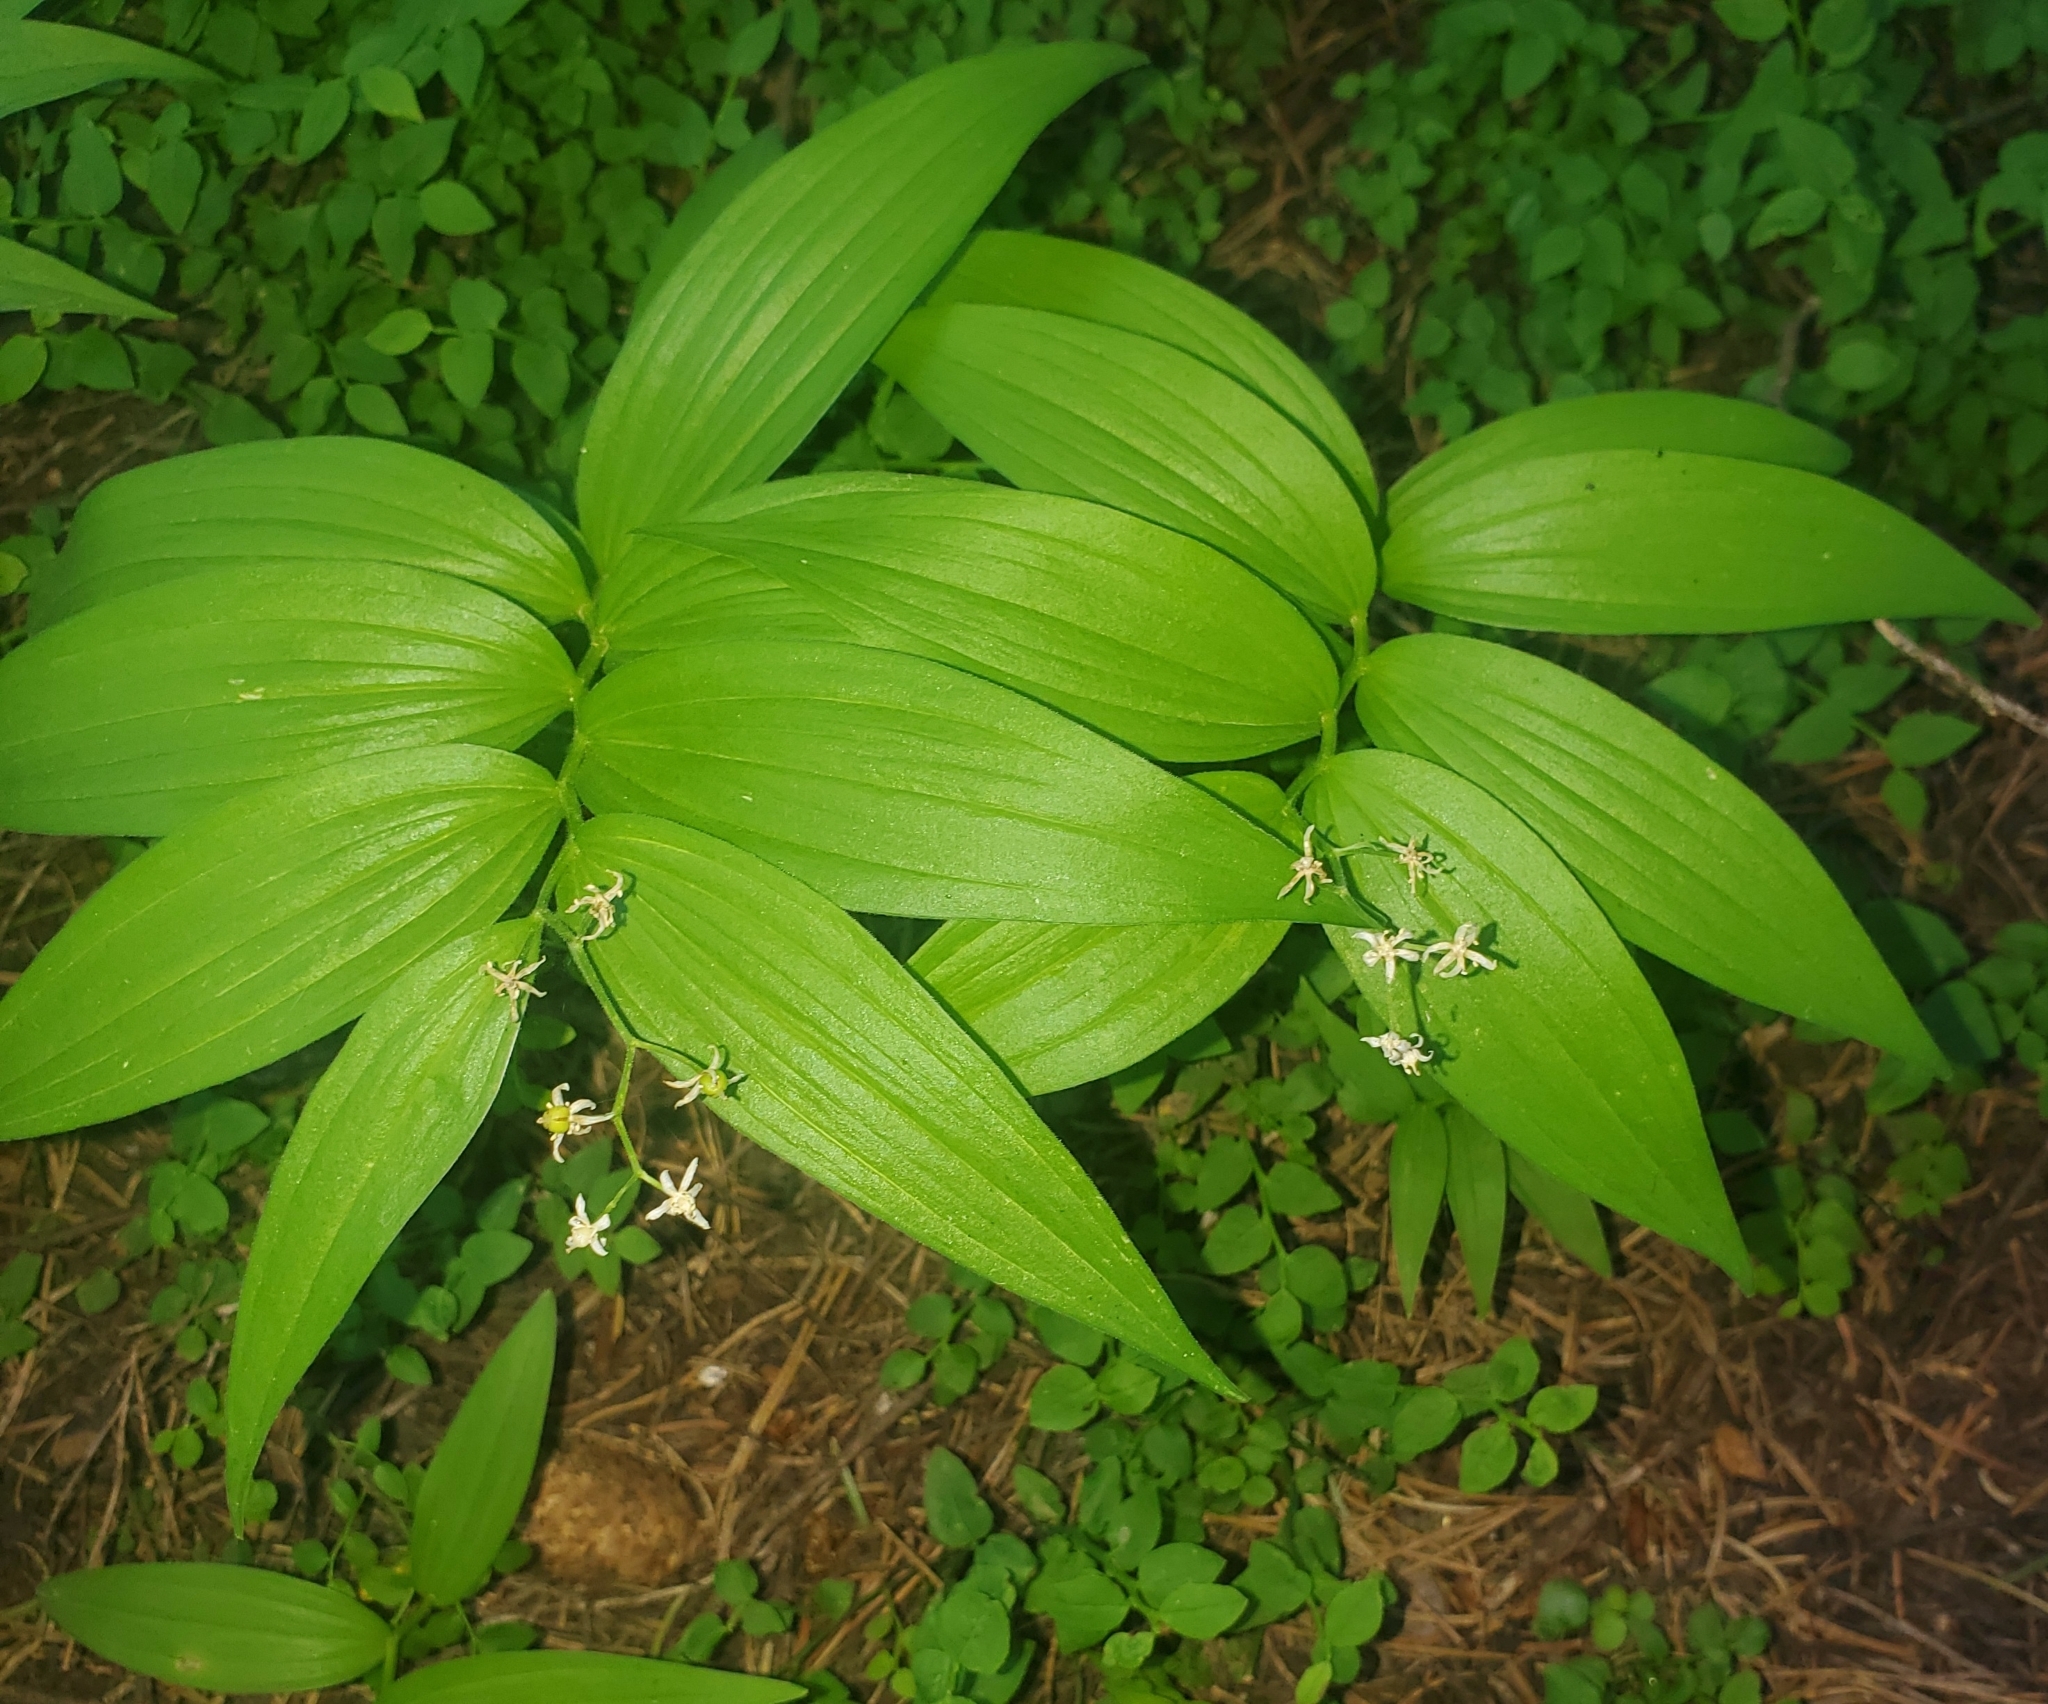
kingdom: Plantae
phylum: Tracheophyta
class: Liliopsida
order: Asparagales
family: Asparagaceae
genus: Maianthemum
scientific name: Maianthemum stellatum
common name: Little false solomon's seal
